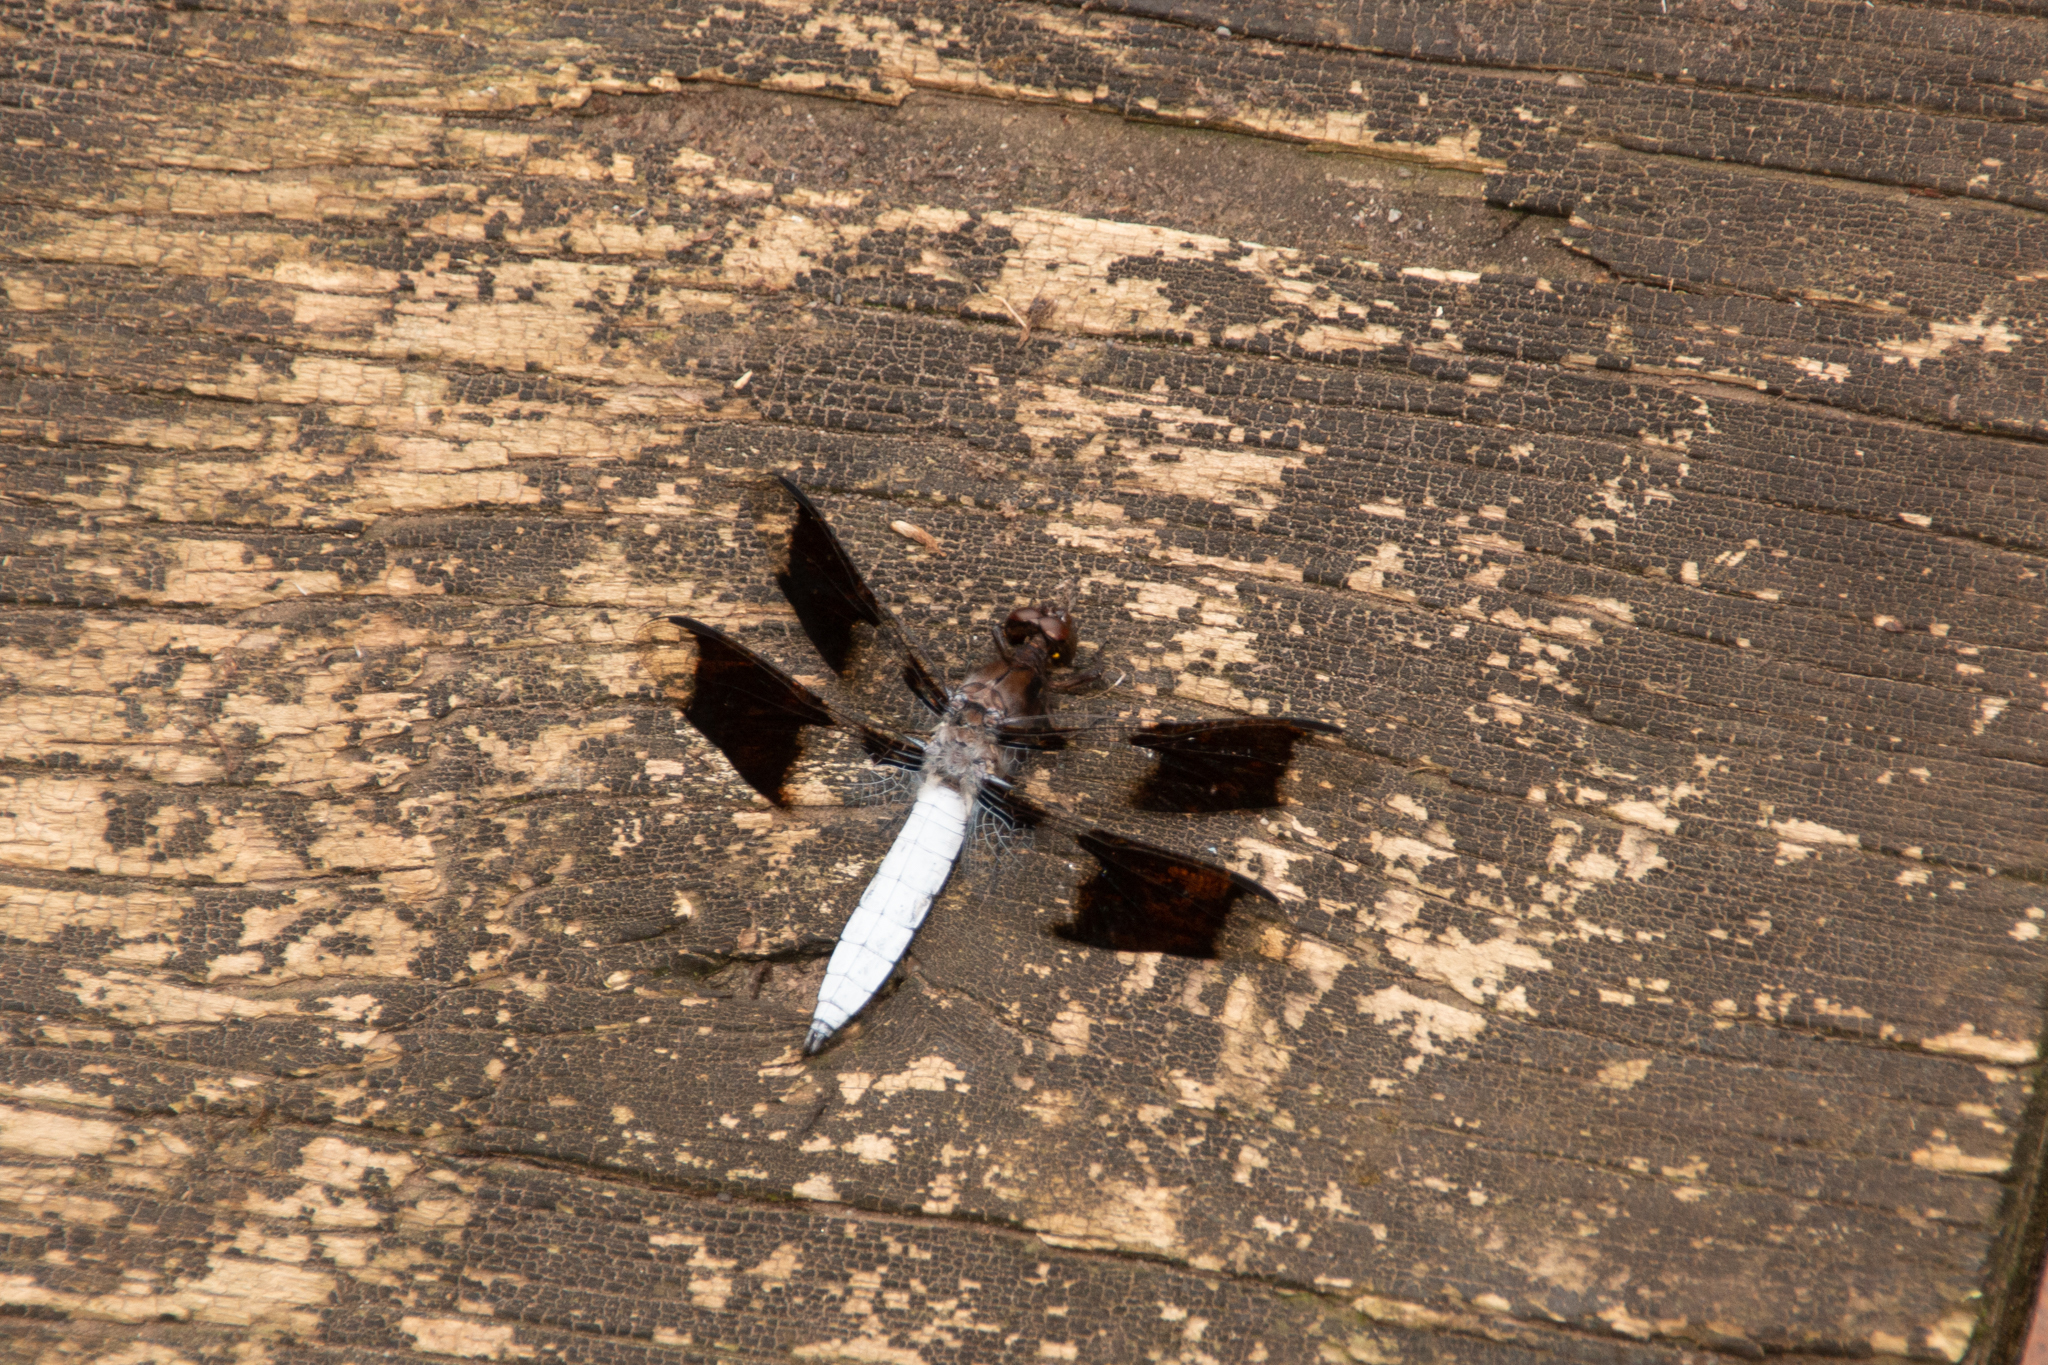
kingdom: Animalia
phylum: Arthropoda
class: Insecta
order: Odonata
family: Libellulidae
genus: Plathemis
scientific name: Plathemis lydia
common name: Common whitetail
